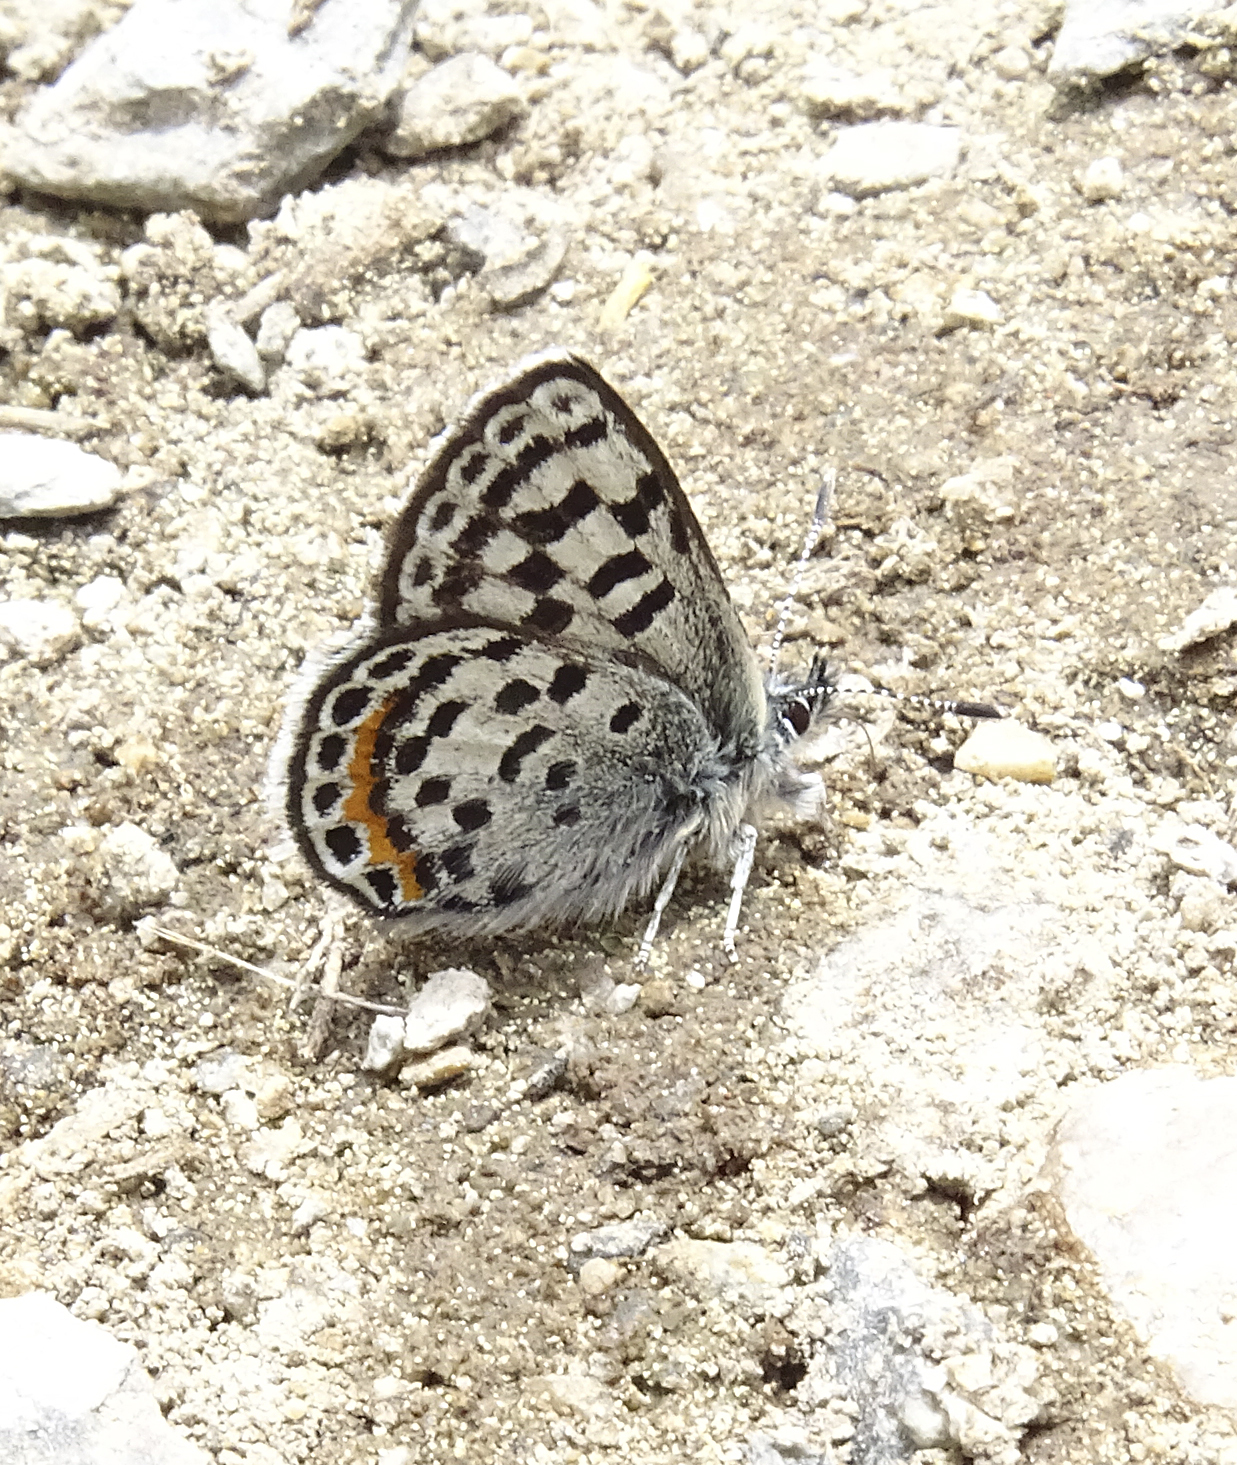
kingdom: Animalia
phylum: Arthropoda
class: Insecta
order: Lepidoptera
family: Lycaenidae
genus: Euphilotes
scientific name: Euphilotes battoides
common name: Square-spotted blue
